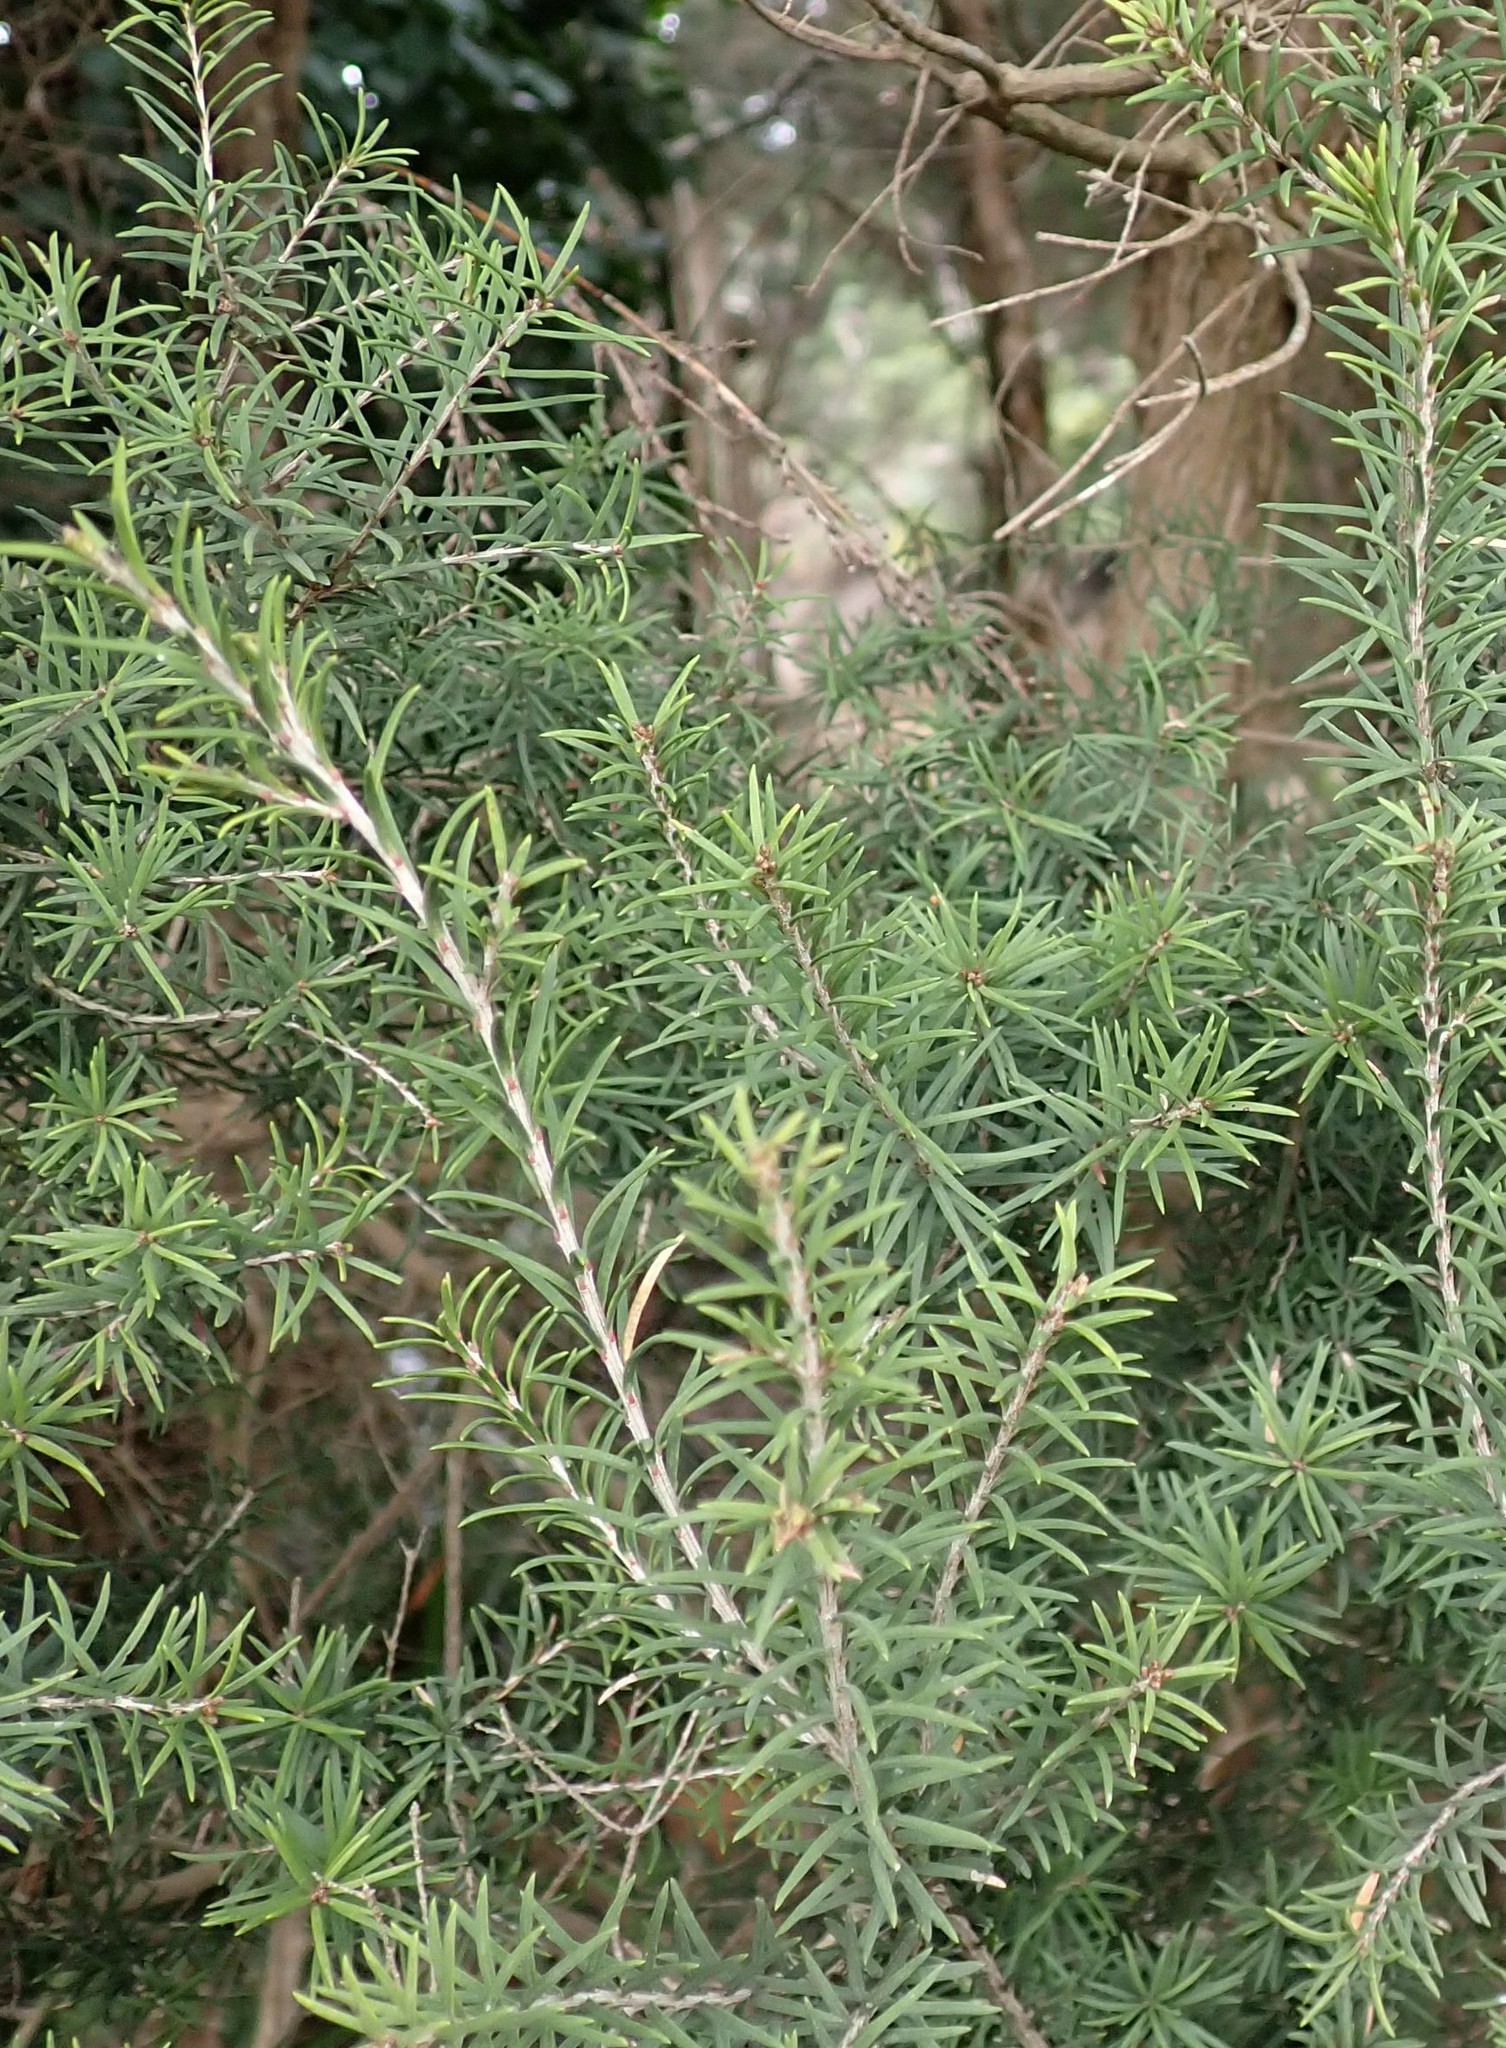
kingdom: Plantae
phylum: Tracheophyta
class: Magnoliopsida
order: Myrtales
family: Myrtaceae
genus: Melaleuca
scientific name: Melaleuca ericifolia
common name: Paperbark teatree
